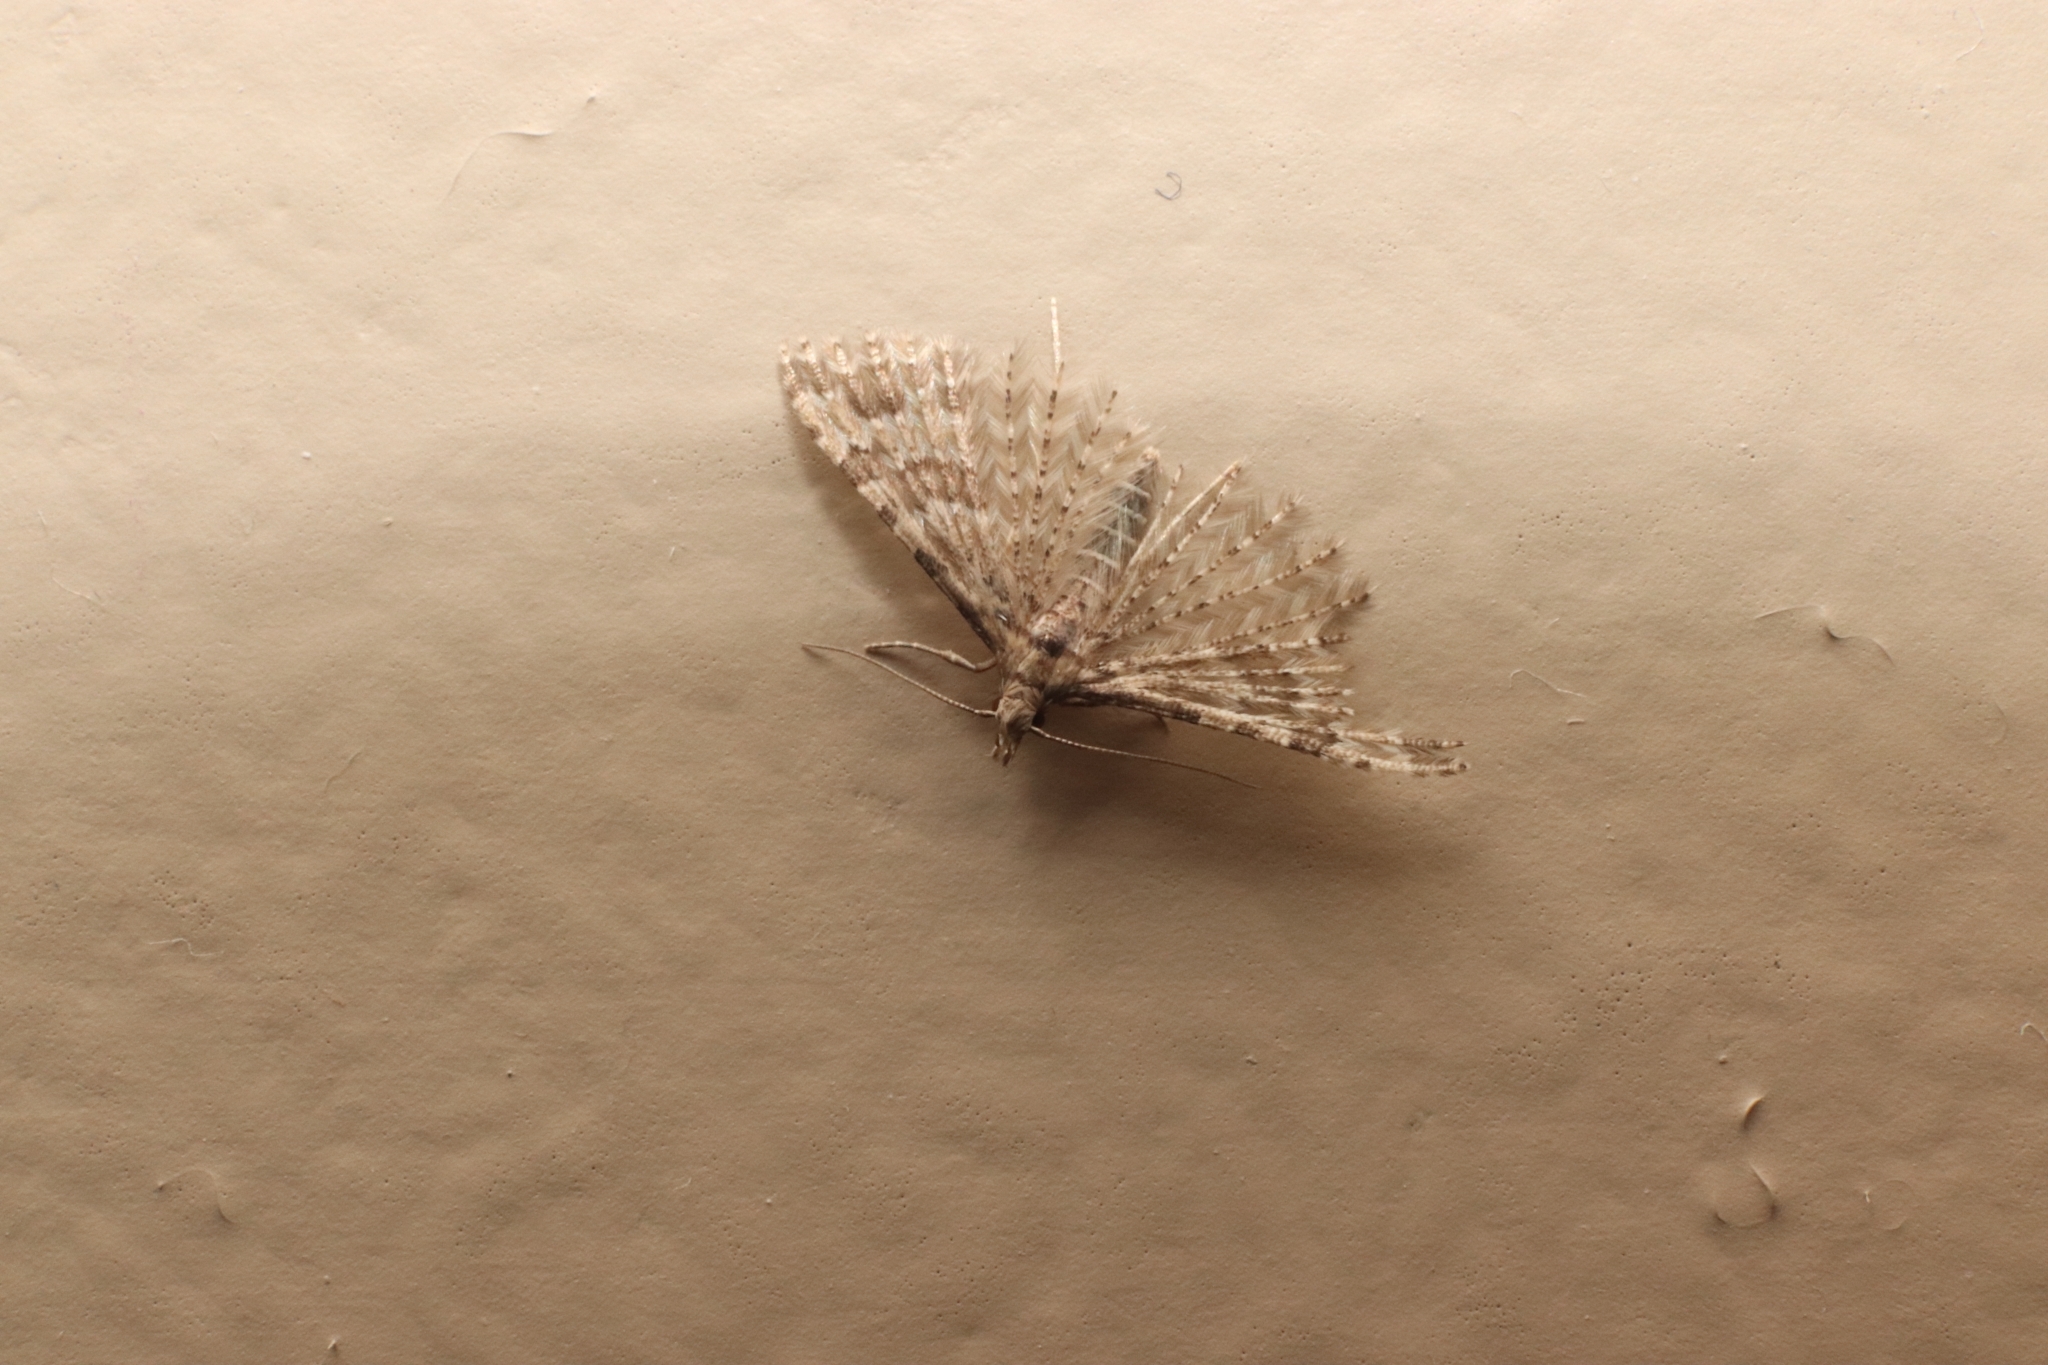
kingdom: Animalia
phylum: Arthropoda
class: Insecta
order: Lepidoptera
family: Alucitidae
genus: Alucita
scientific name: Alucita montana
